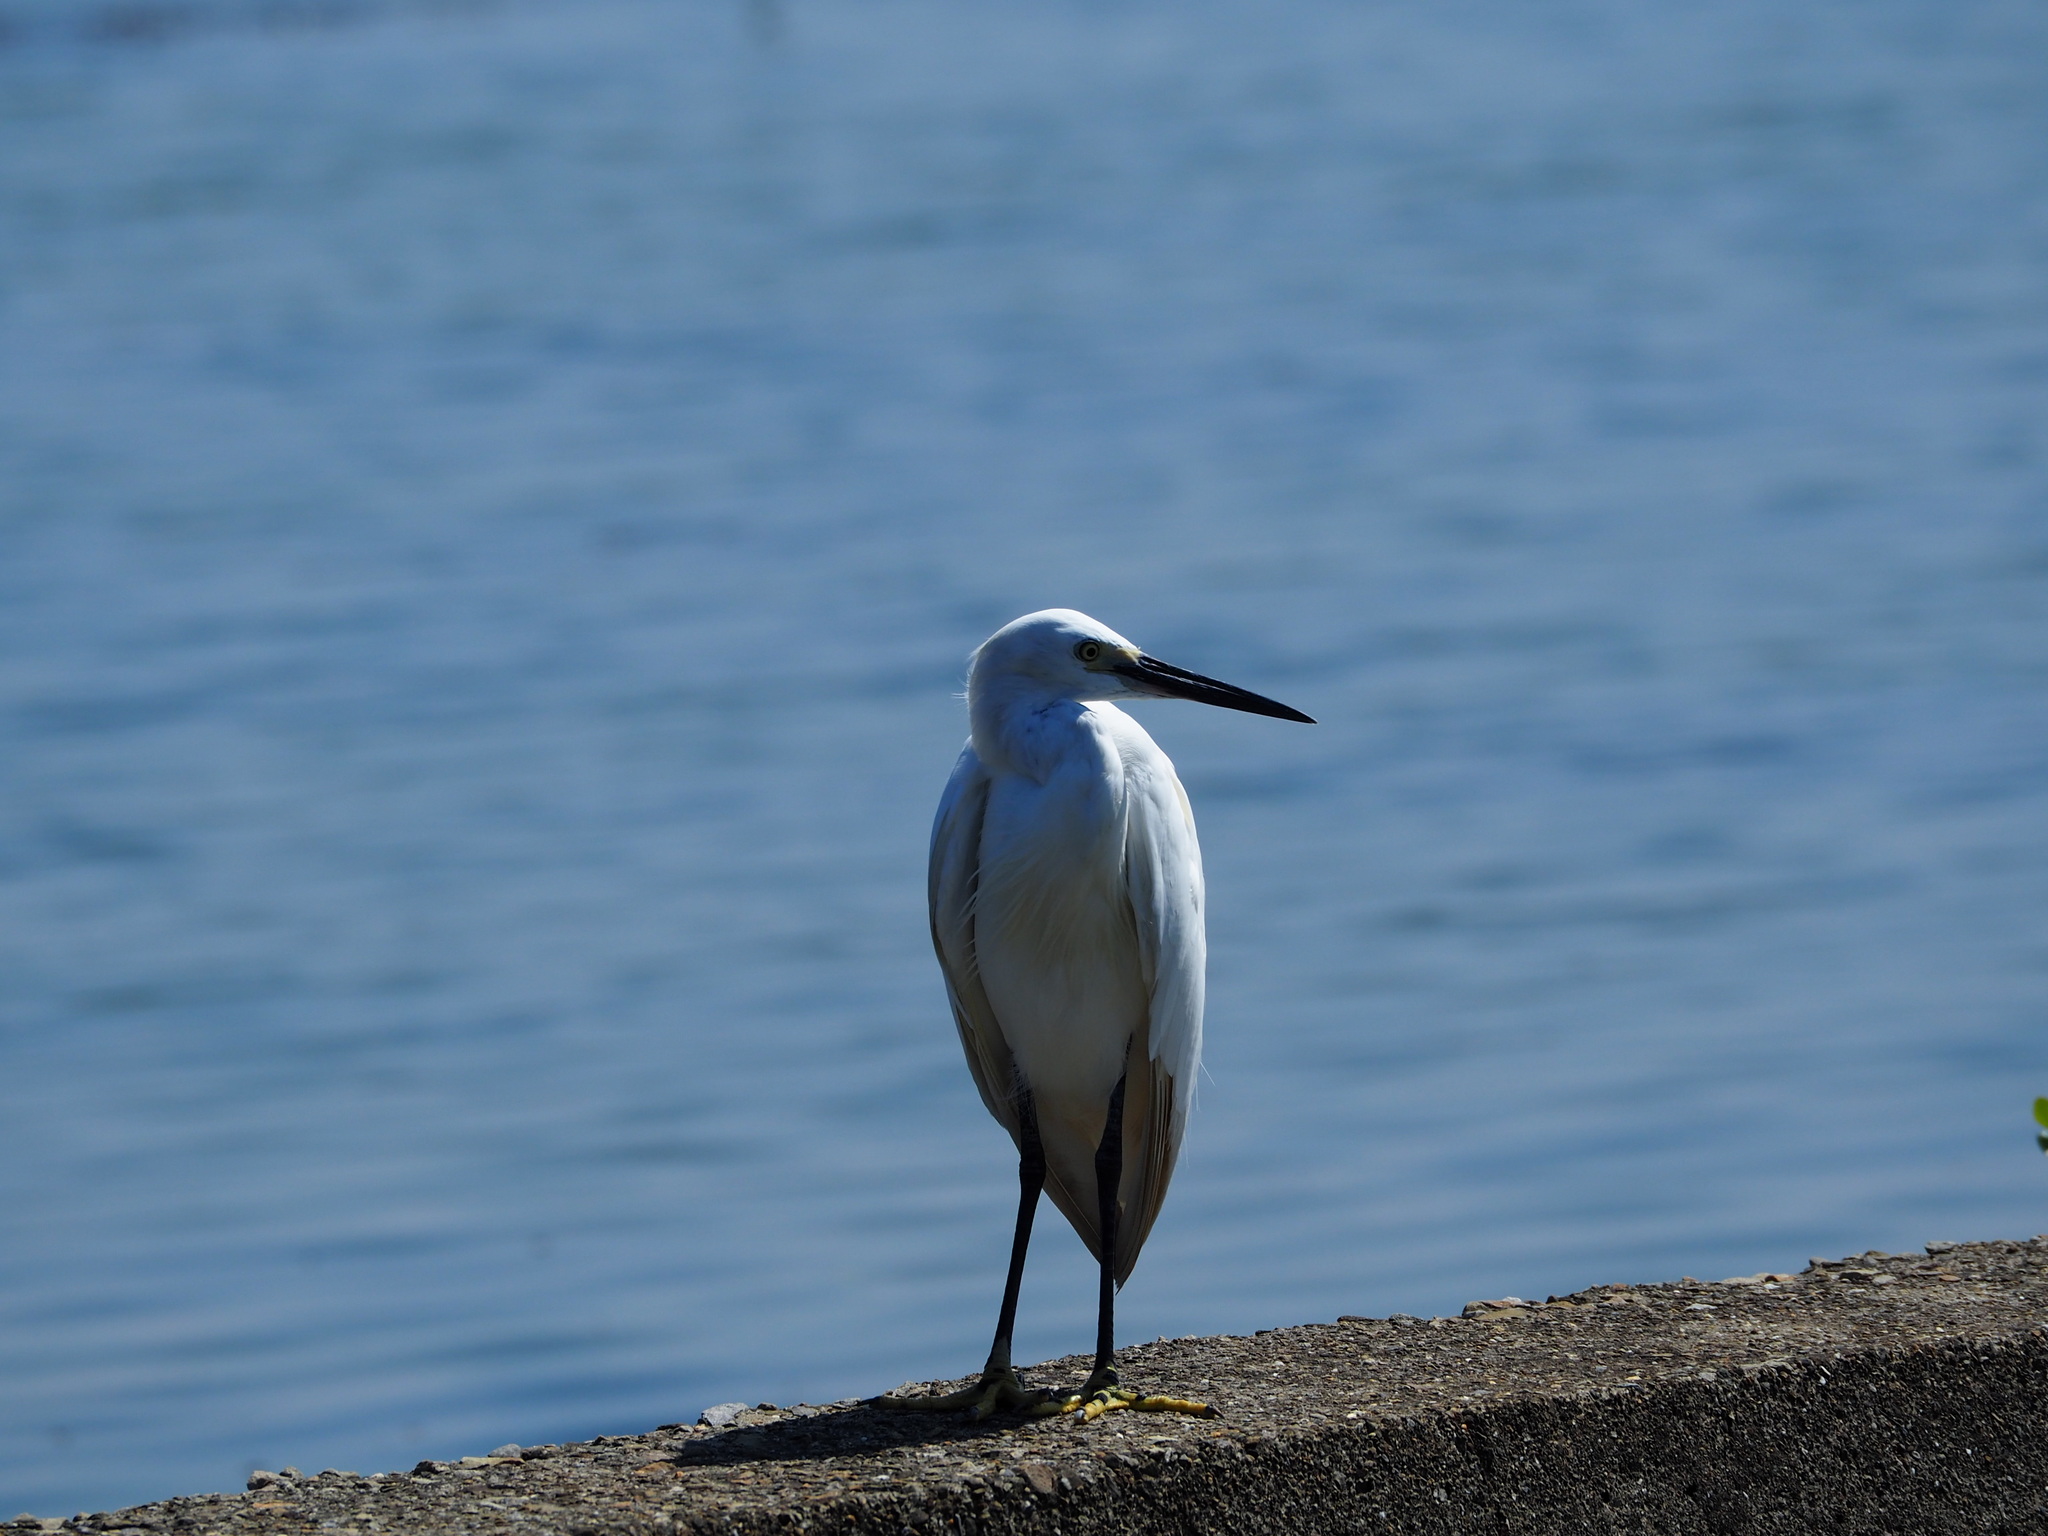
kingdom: Animalia
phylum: Chordata
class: Aves
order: Pelecaniformes
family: Ardeidae
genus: Egretta
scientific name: Egretta garzetta
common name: Little egret
